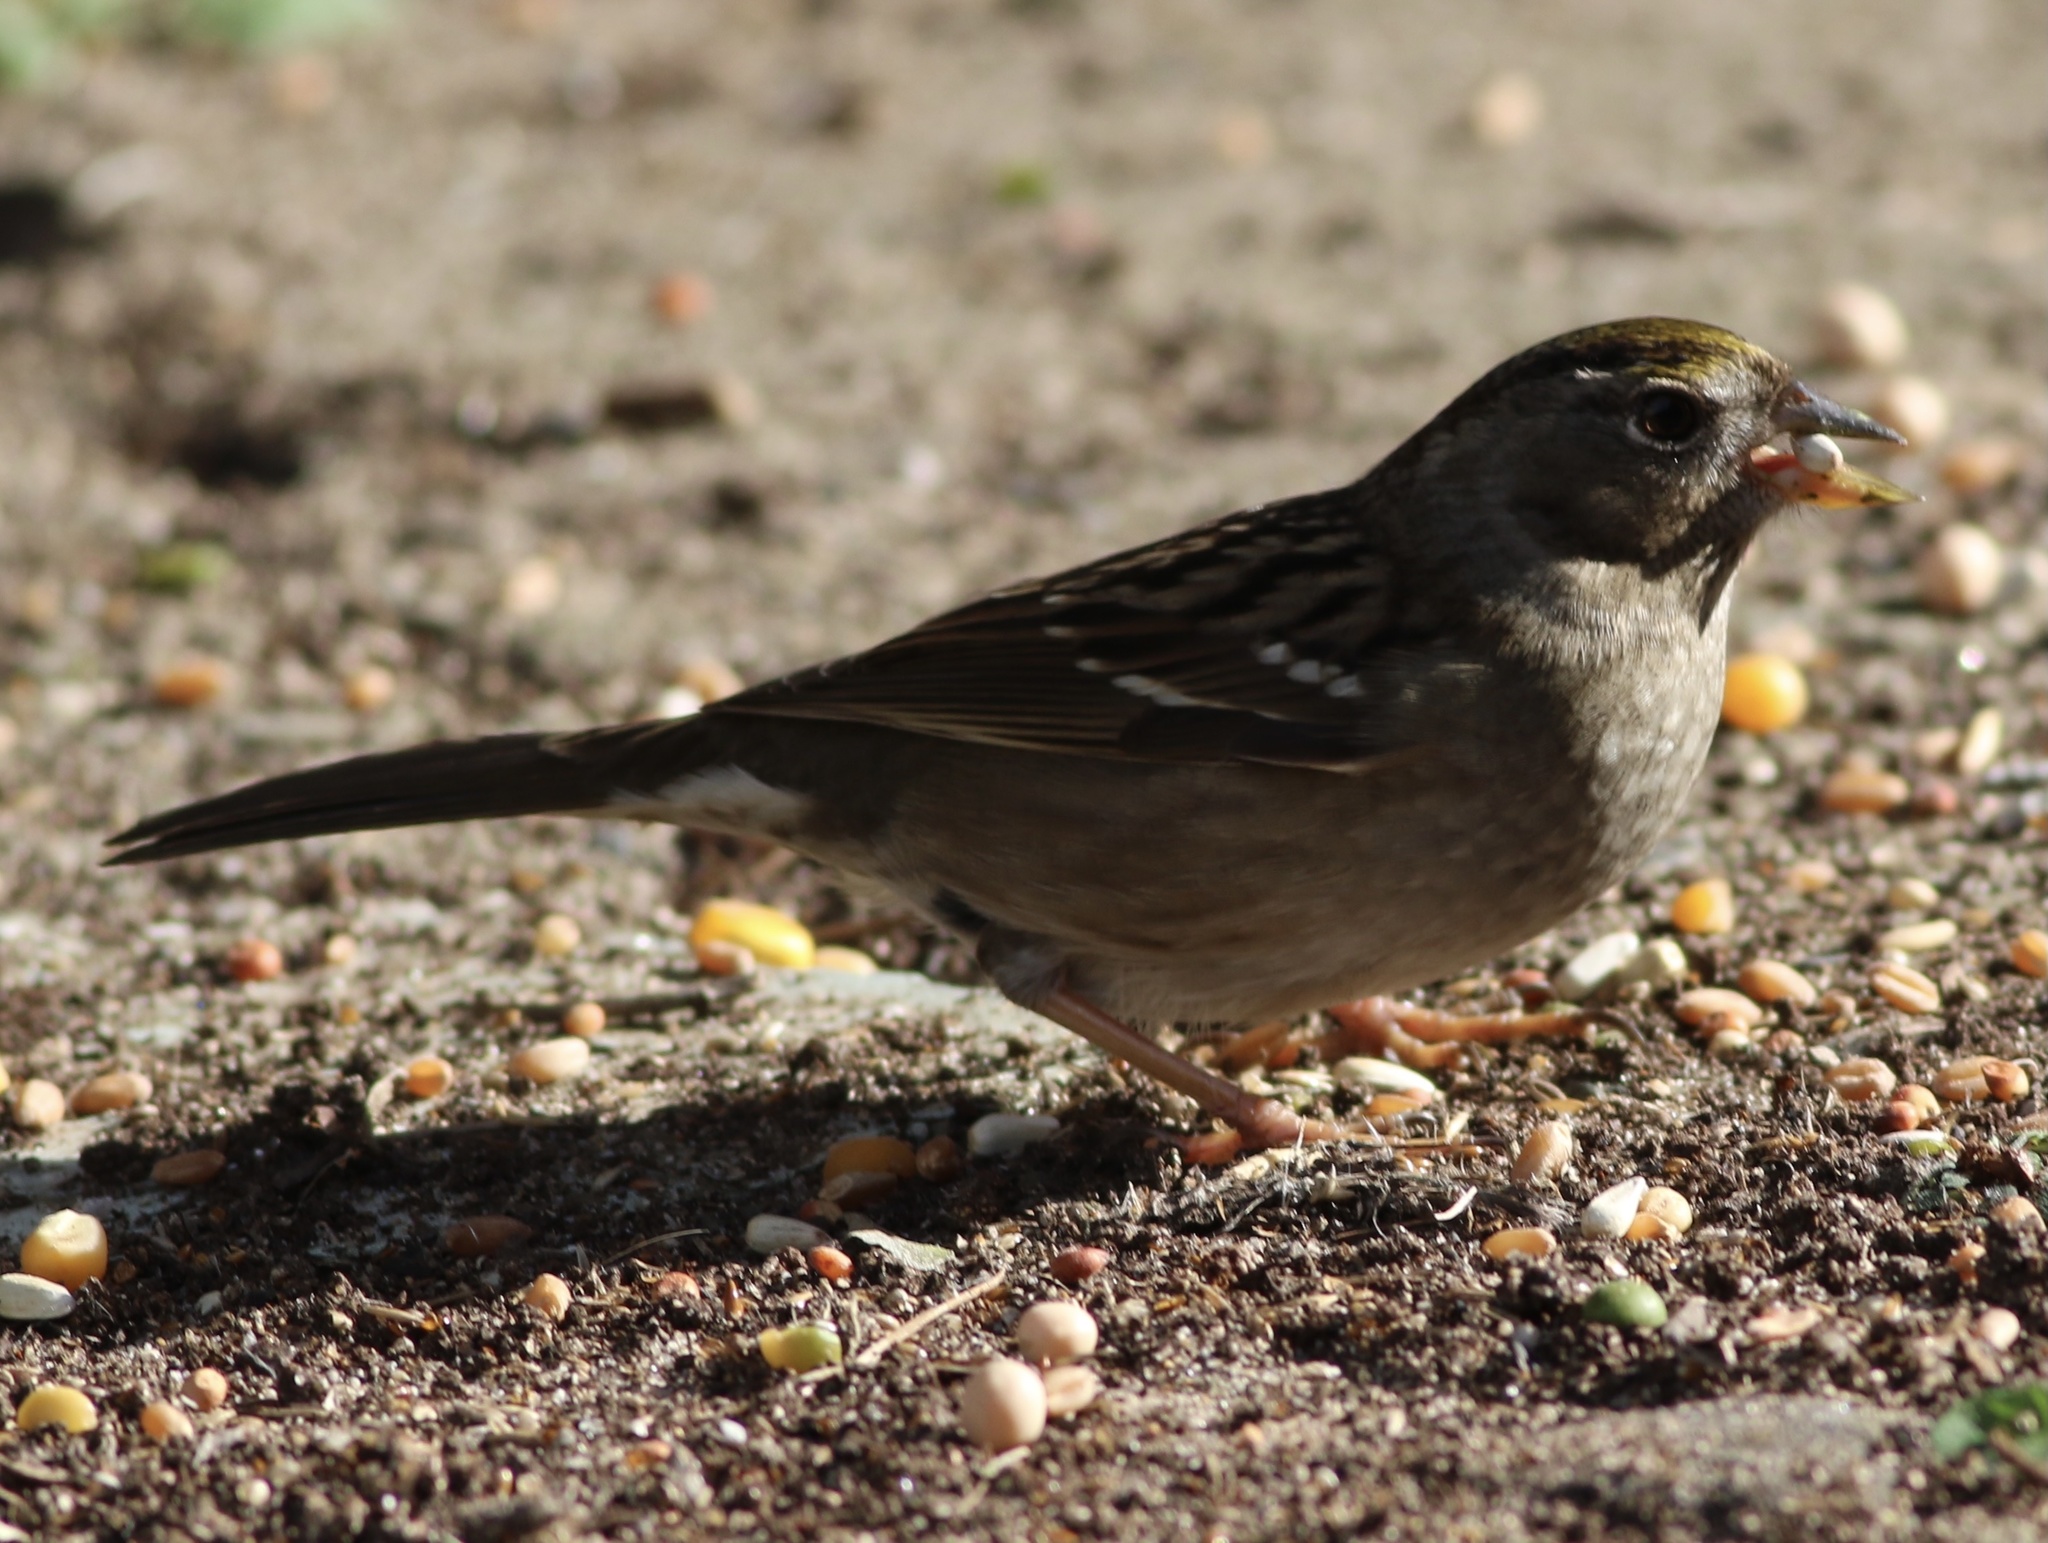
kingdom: Animalia
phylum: Chordata
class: Aves
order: Passeriformes
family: Passerellidae
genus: Zonotrichia
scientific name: Zonotrichia atricapilla
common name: Golden-crowned sparrow
